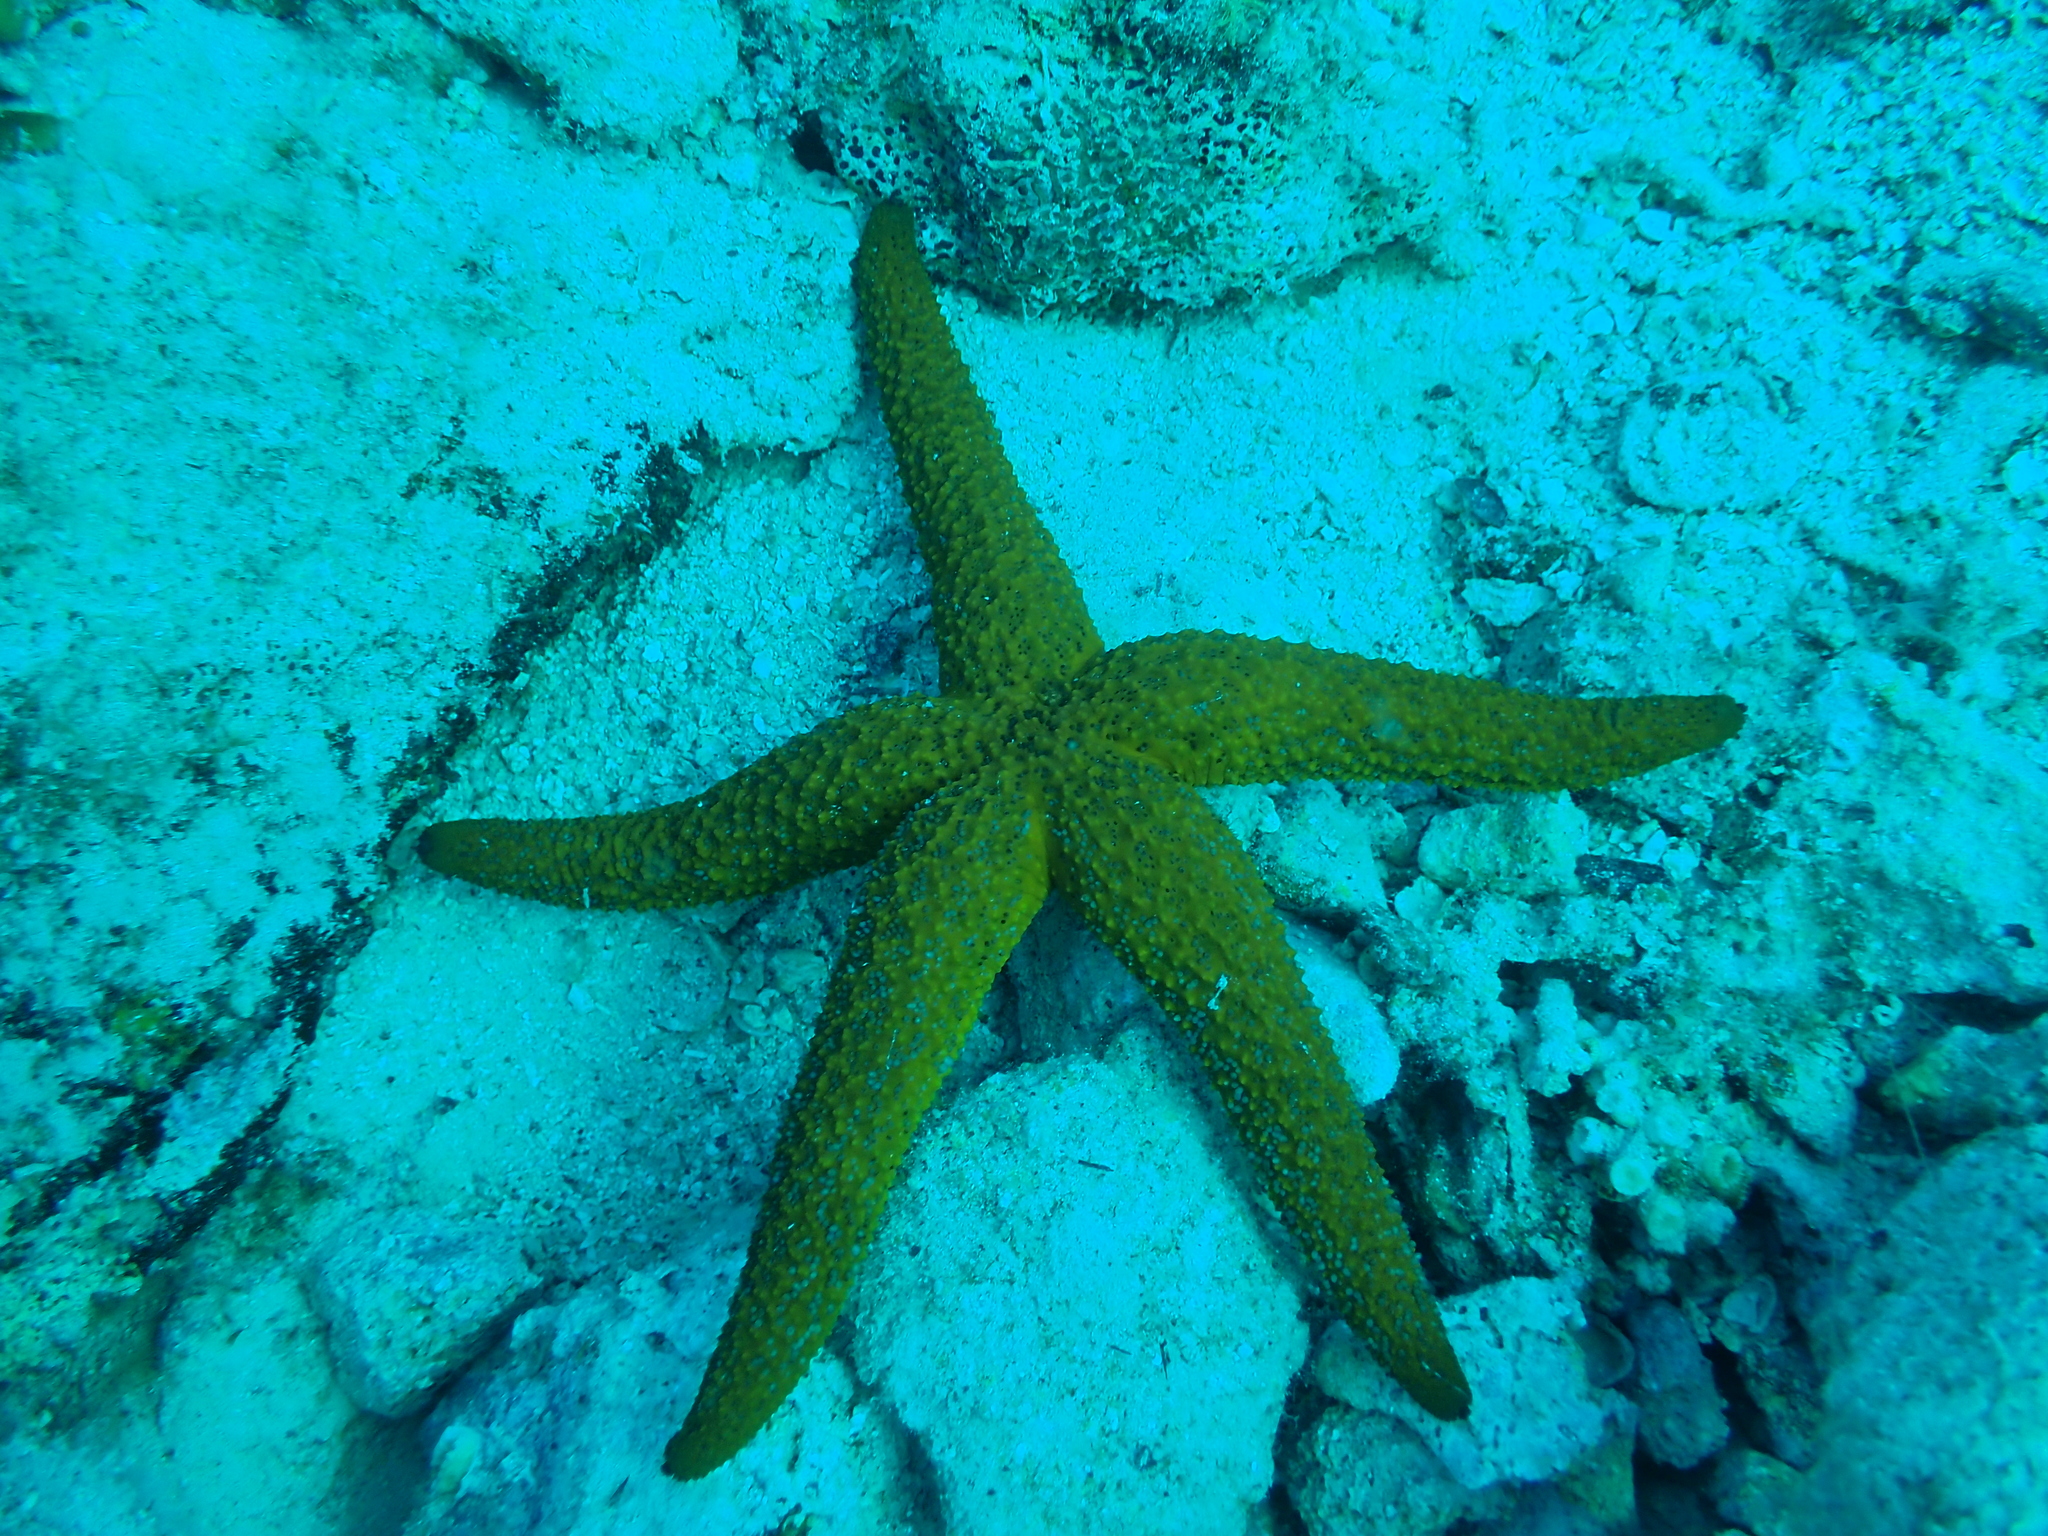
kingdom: Animalia
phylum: Echinodermata
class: Asteroidea
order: Spinulosida
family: Echinasteridae
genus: Echinaster
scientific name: Echinaster sepositus
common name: Red starfish
